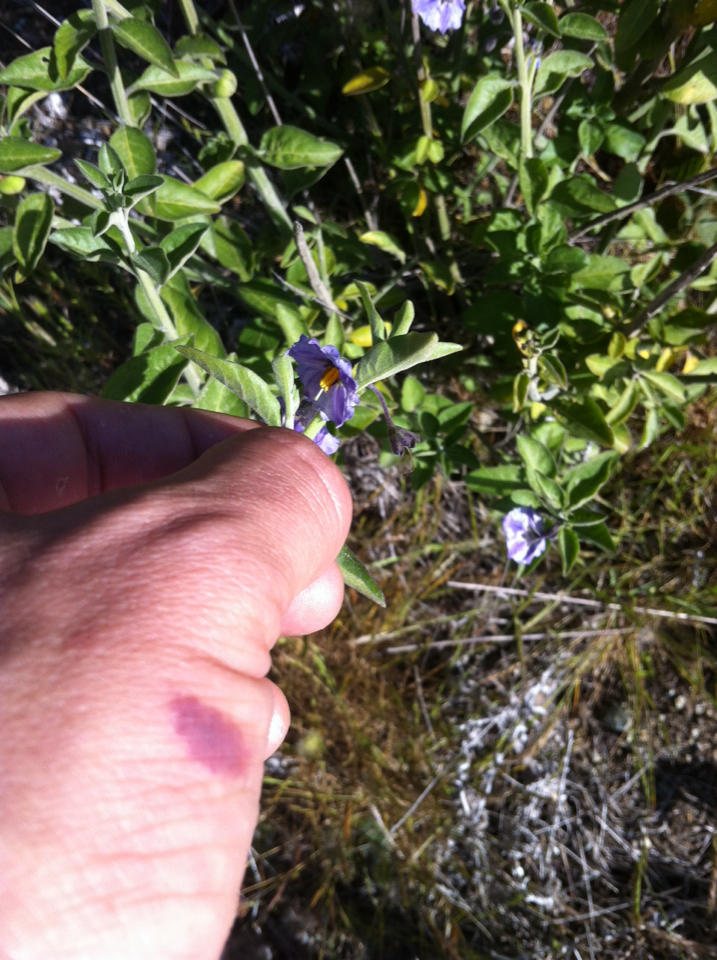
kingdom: Plantae
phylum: Tracheophyta
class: Magnoliopsida
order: Solanales
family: Solanaceae
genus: Solanum
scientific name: Solanum umbelliferum
